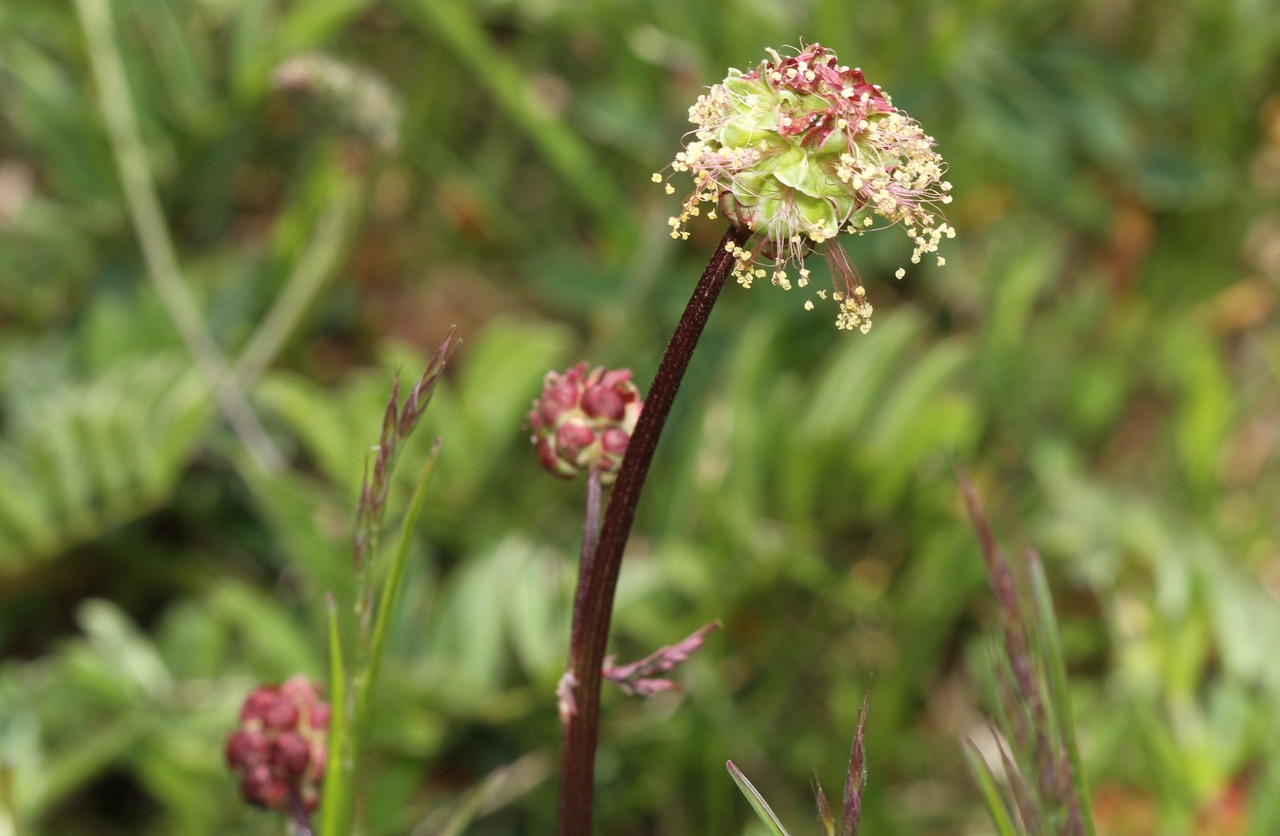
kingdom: Plantae
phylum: Tracheophyta
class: Magnoliopsida
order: Rosales
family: Rosaceae
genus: Poterium
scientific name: Poterium sanguisorba
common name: Salad burnet
